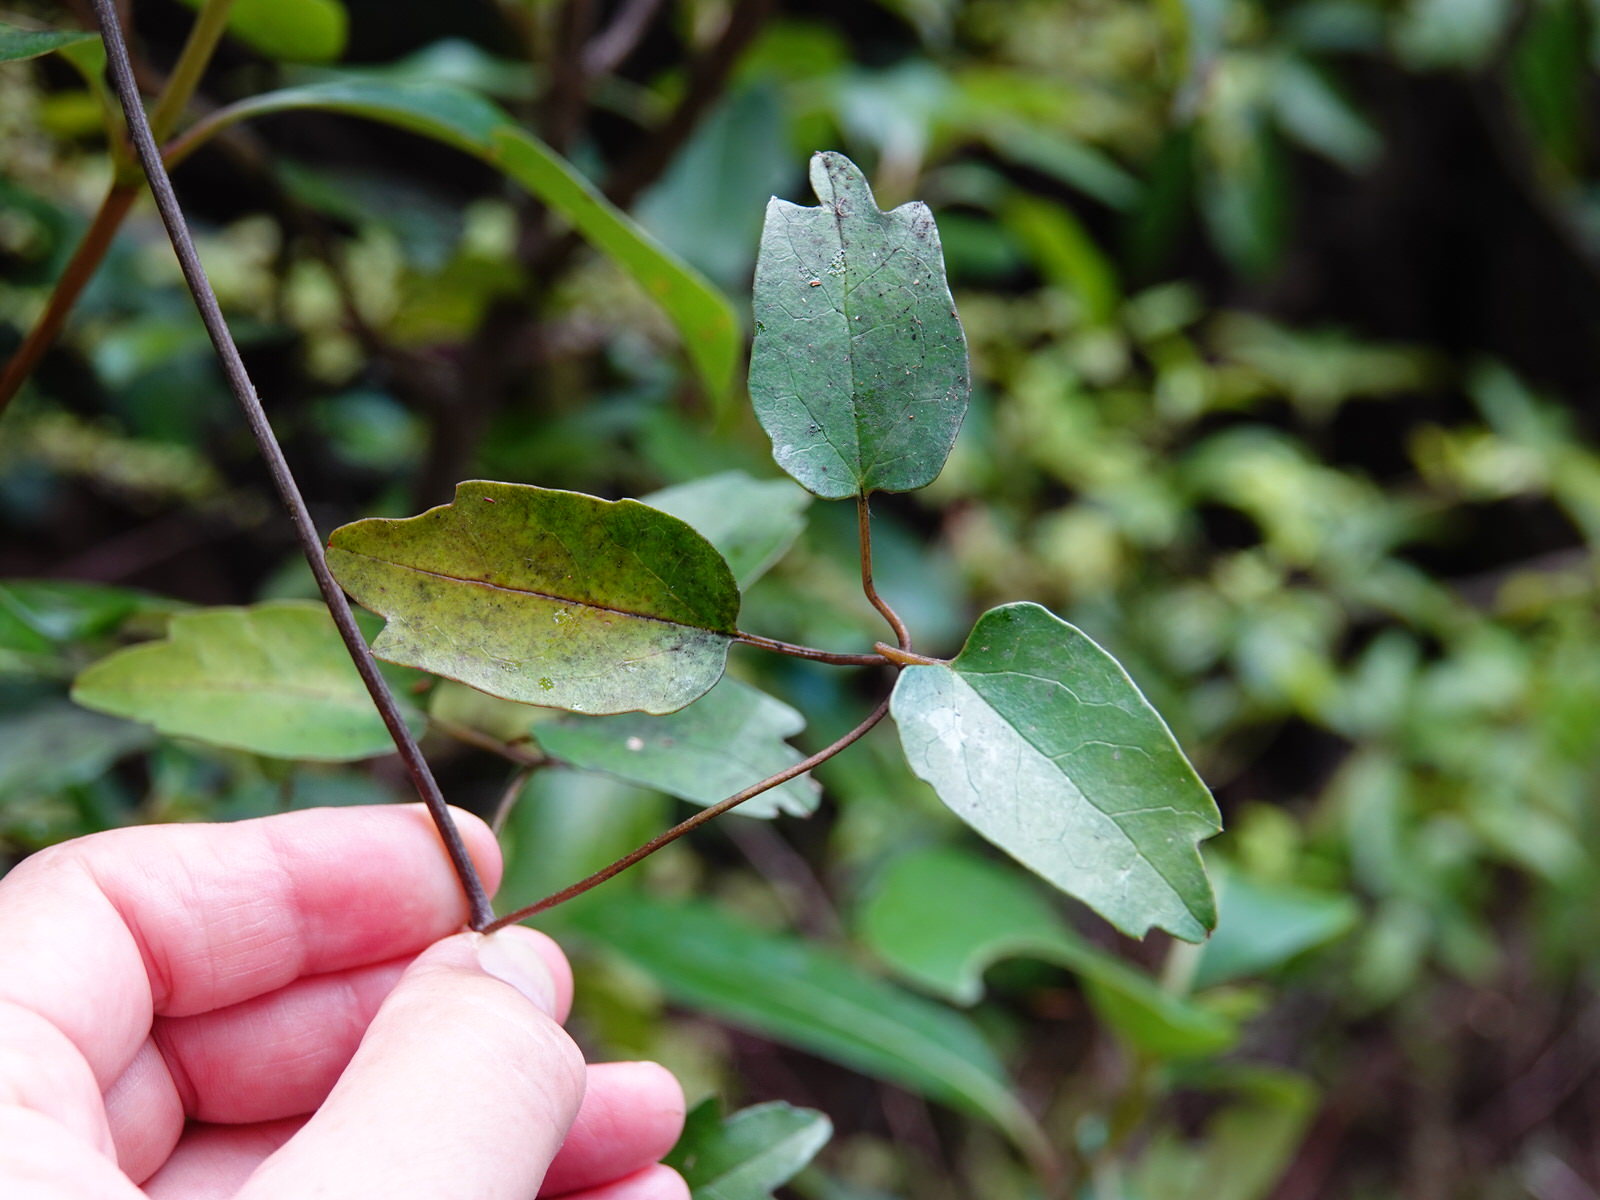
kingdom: Plantae
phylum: Tracheophyta
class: Magnoliopsida
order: Ranunculales
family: Ranunculaceae
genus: Clematis
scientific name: Clematis paniculata
